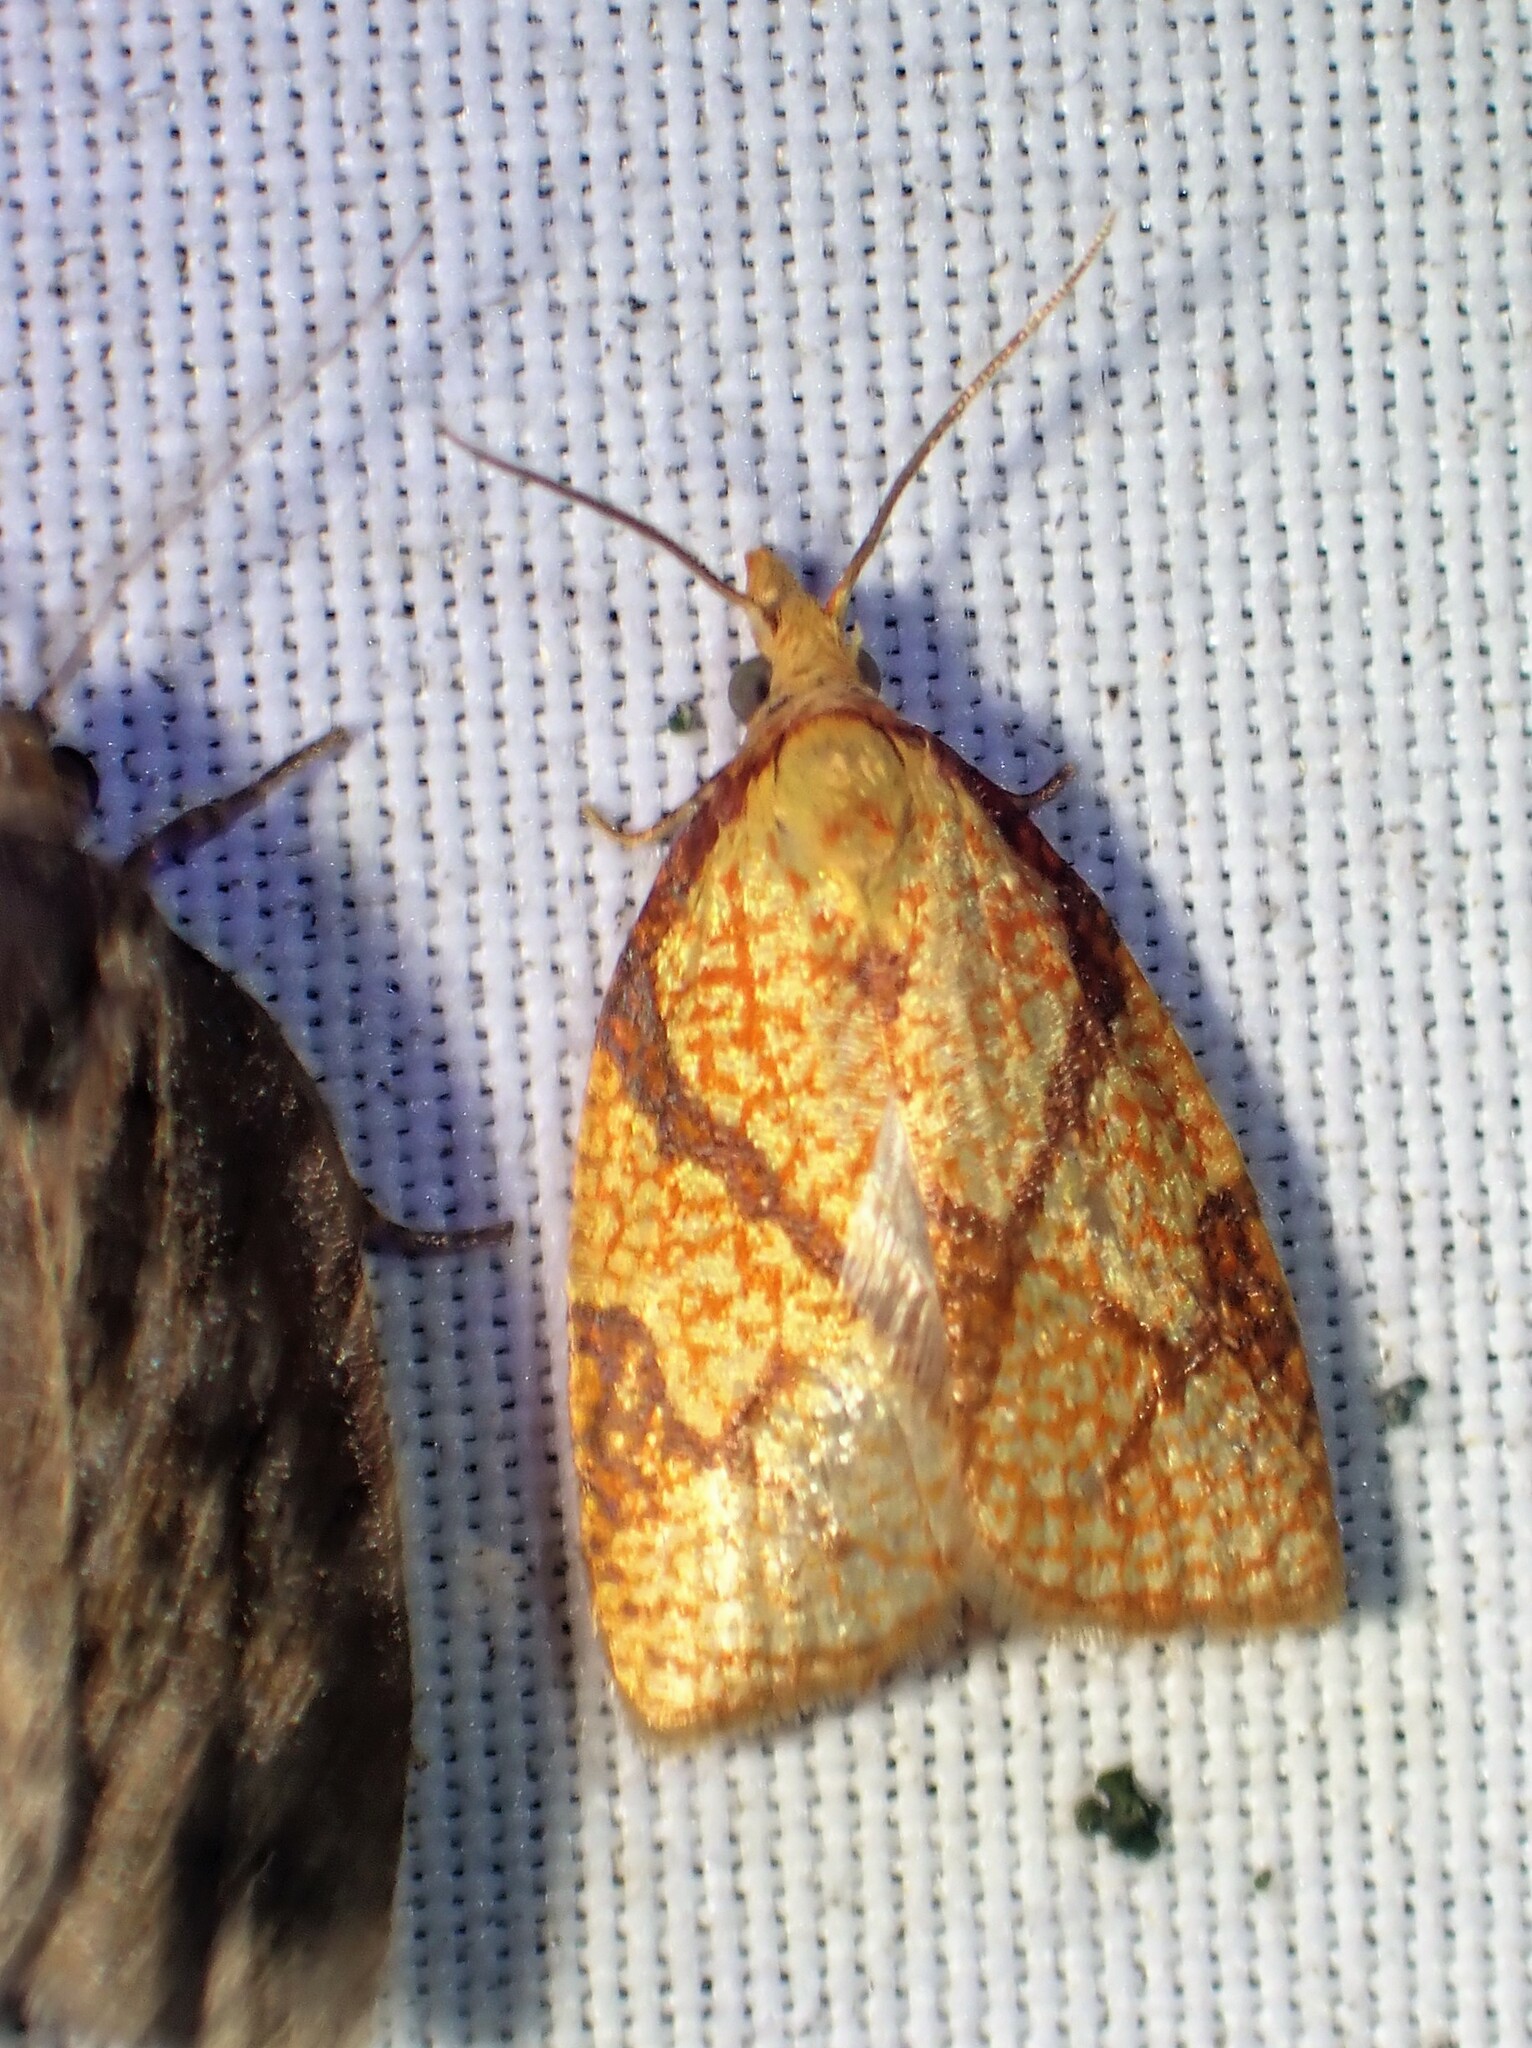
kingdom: Animalia
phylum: Arthropoda
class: Insecta
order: Lepidoptera
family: Tortricidae
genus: Cenopis
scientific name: Cenopis reticulatana
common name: Reticulated fruitworm moth
